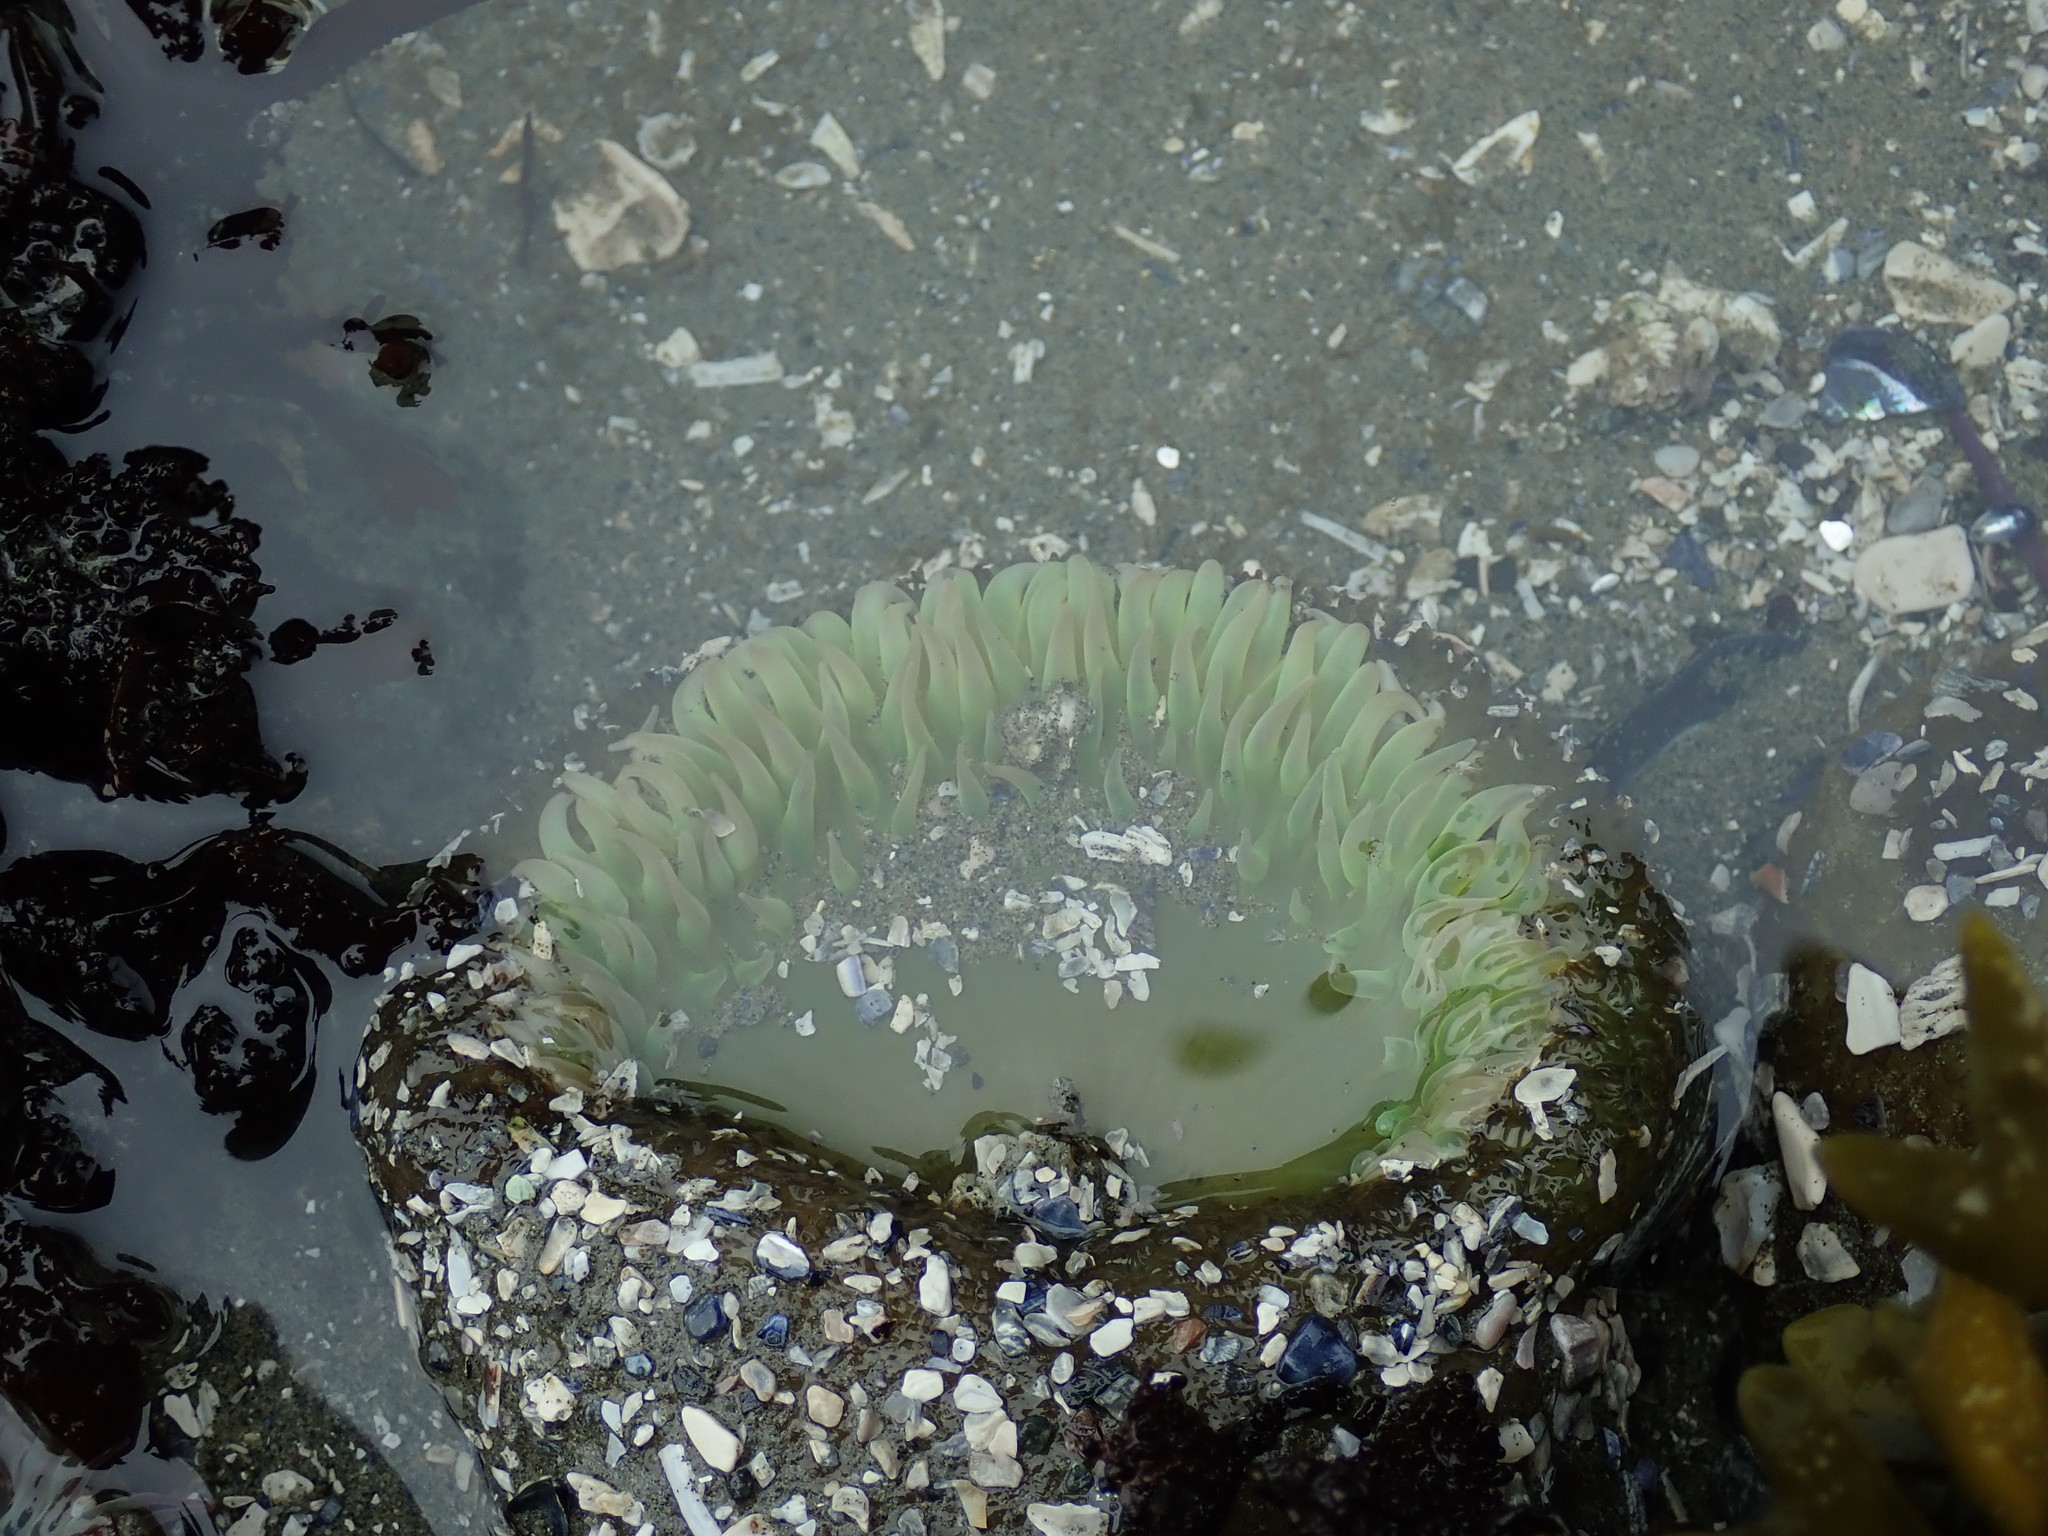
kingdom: Animalia
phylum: Cnidaria
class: Anthozoa
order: Actiniaria
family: Actiniidae
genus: Anthopleura
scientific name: Anthopleura xanthogrammica
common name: Giant green anemone
